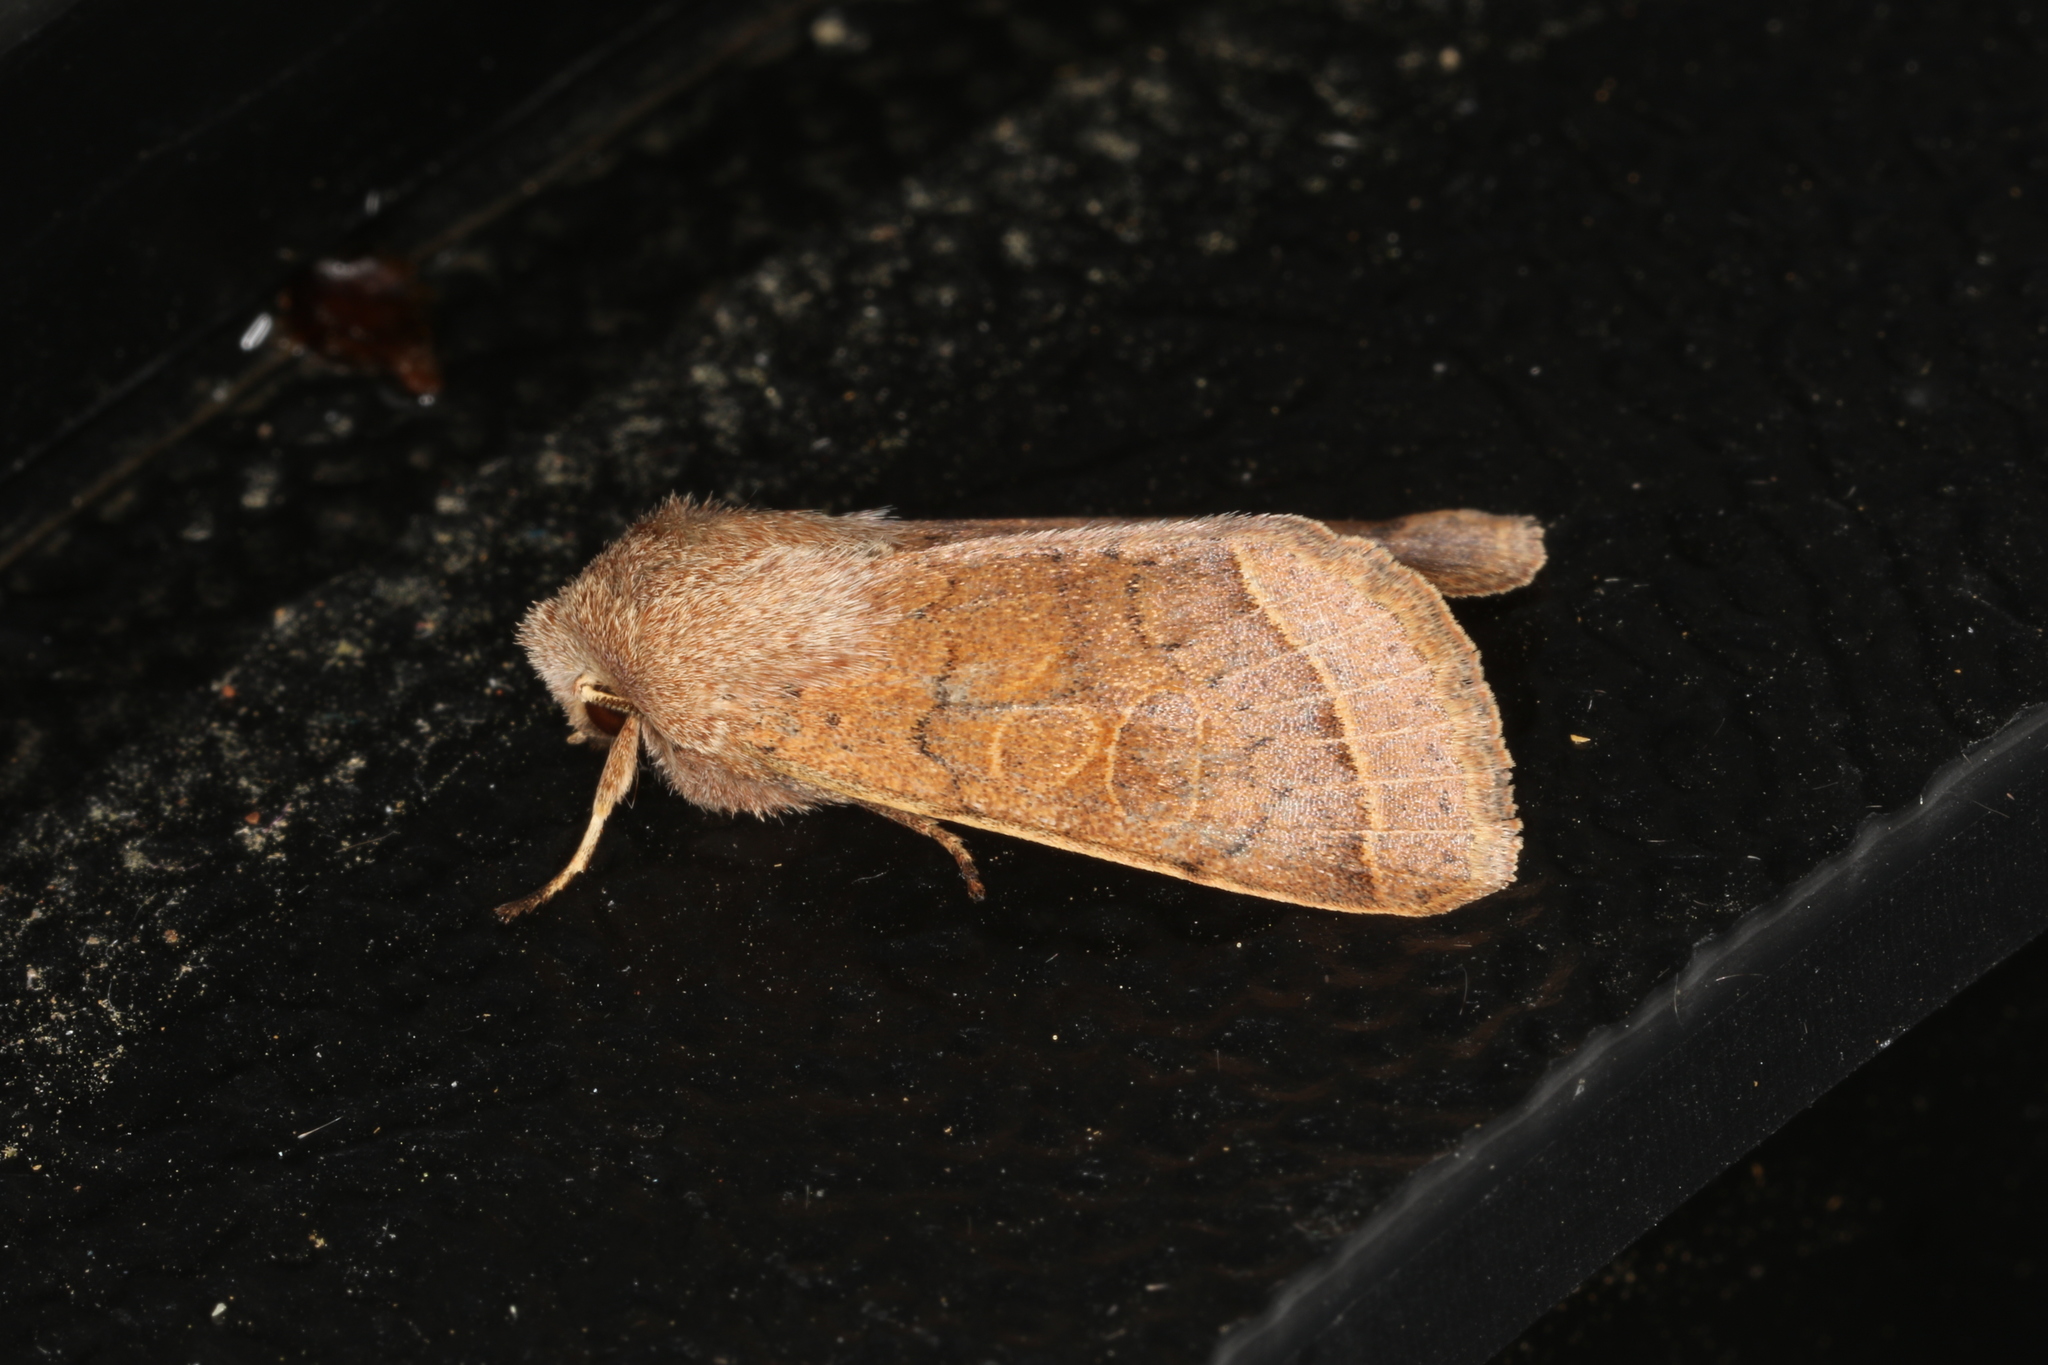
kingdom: Animalia
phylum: Arthropoda
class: Insecta
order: Lepidoptera
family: Noctuidae
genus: Orthosia
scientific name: Orthosia cerasi
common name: Common quaker
